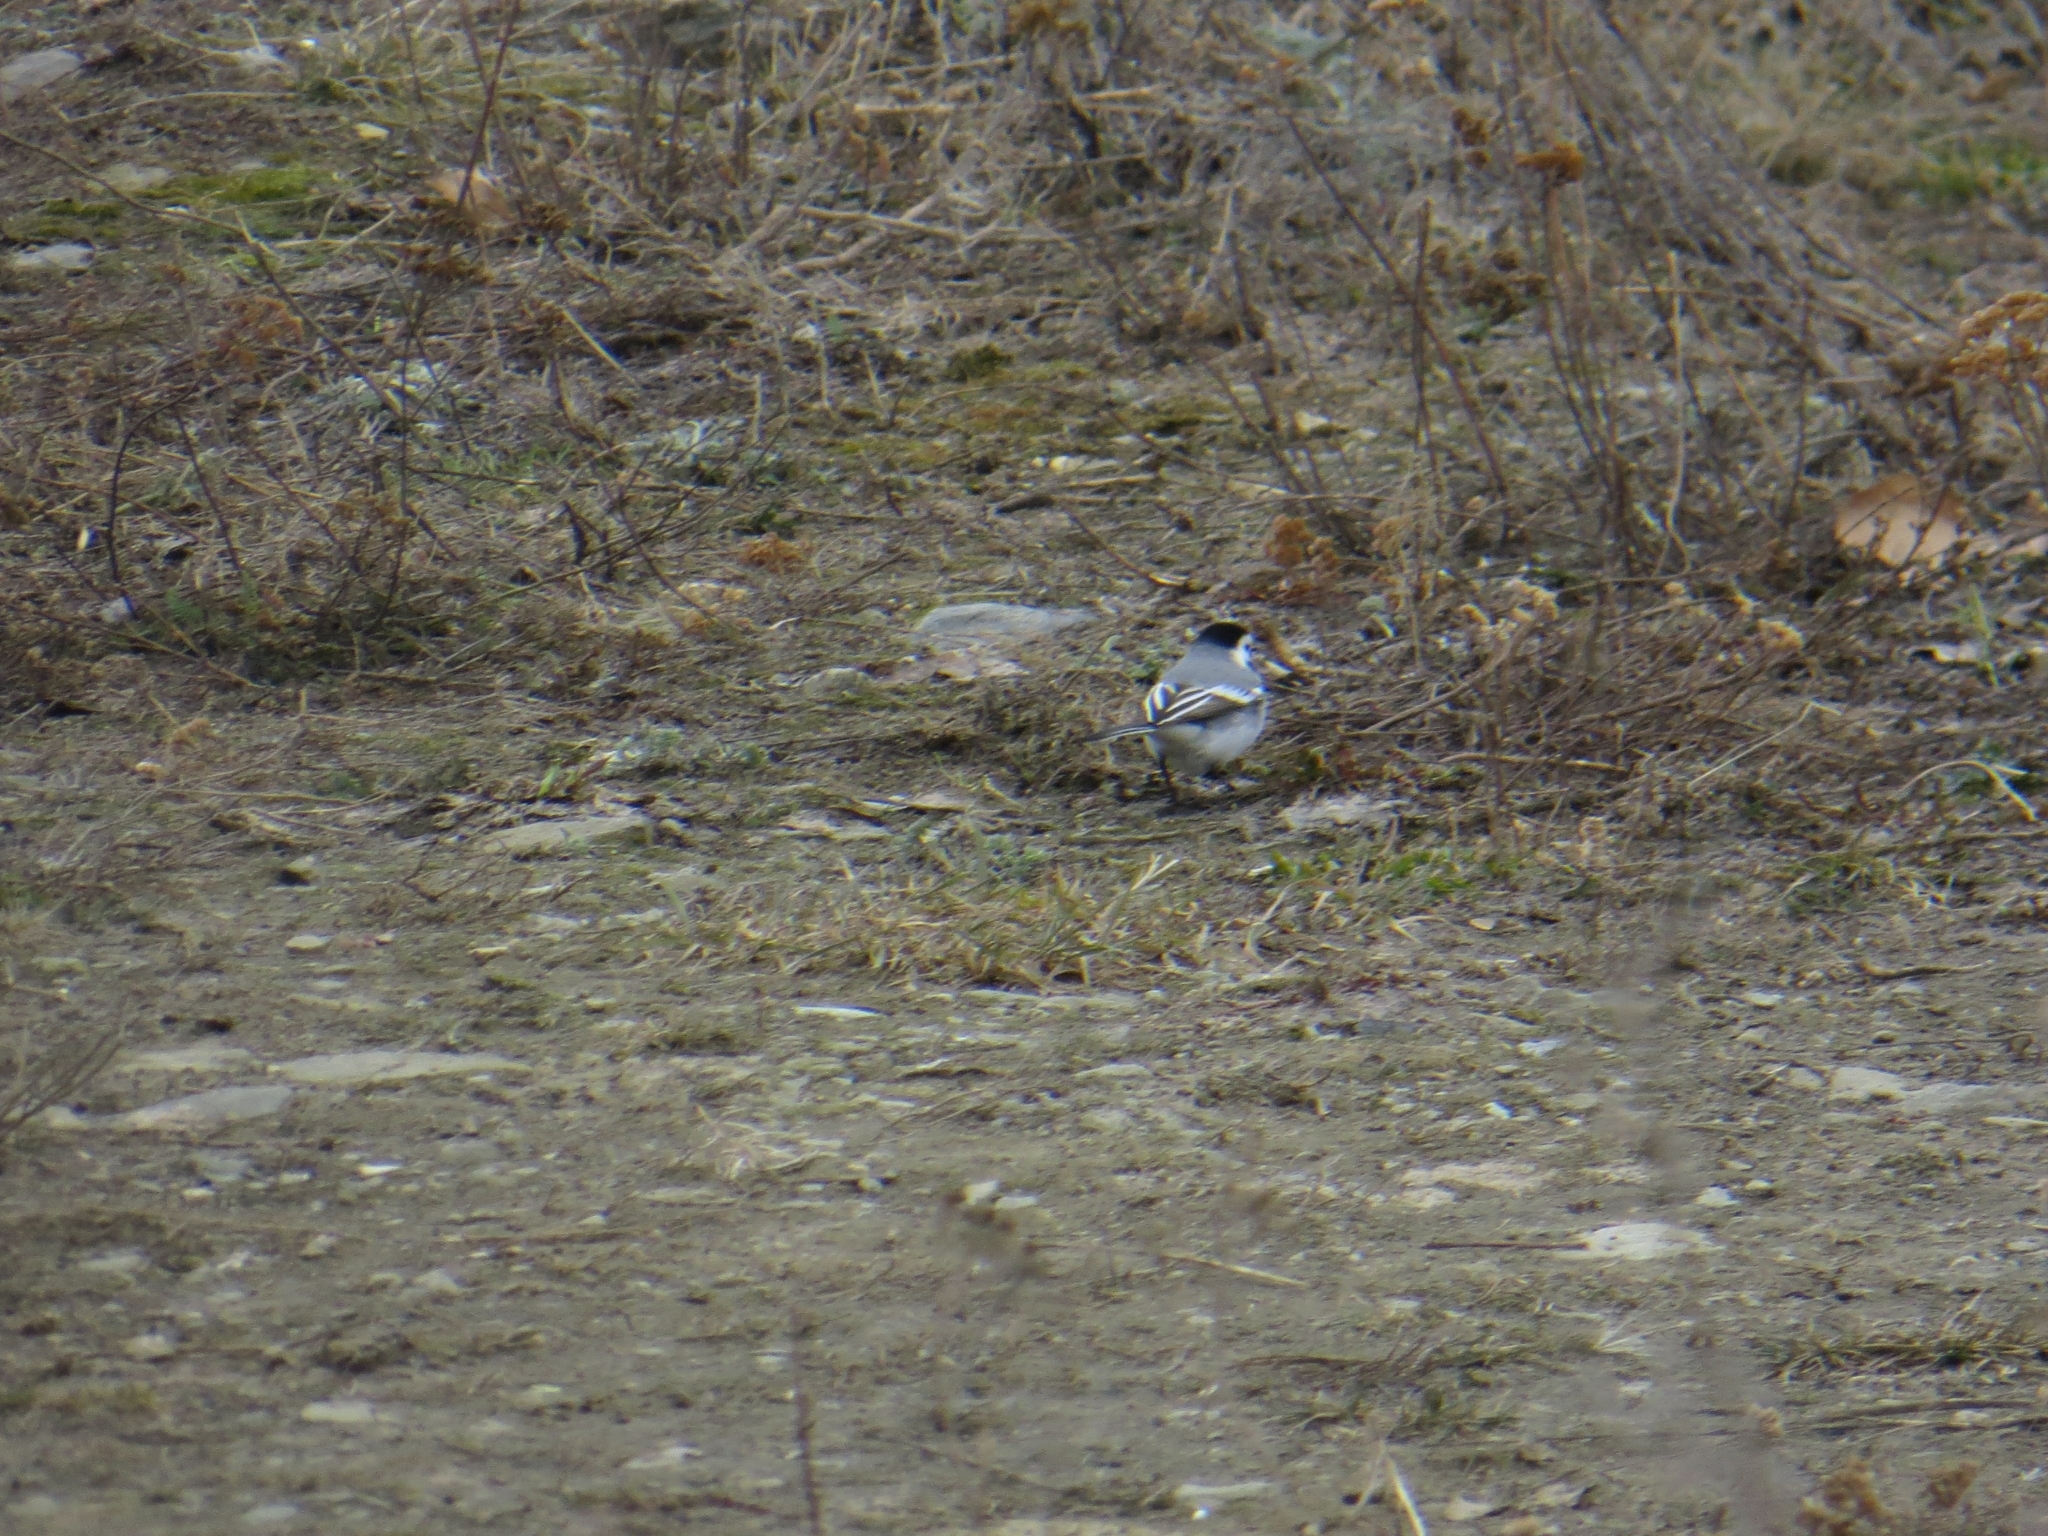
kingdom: Animalia
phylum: Chordata
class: Aves
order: Passeriformes
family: Motacillidae
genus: Motacilla
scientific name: Motacilla alba
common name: White wagtail
